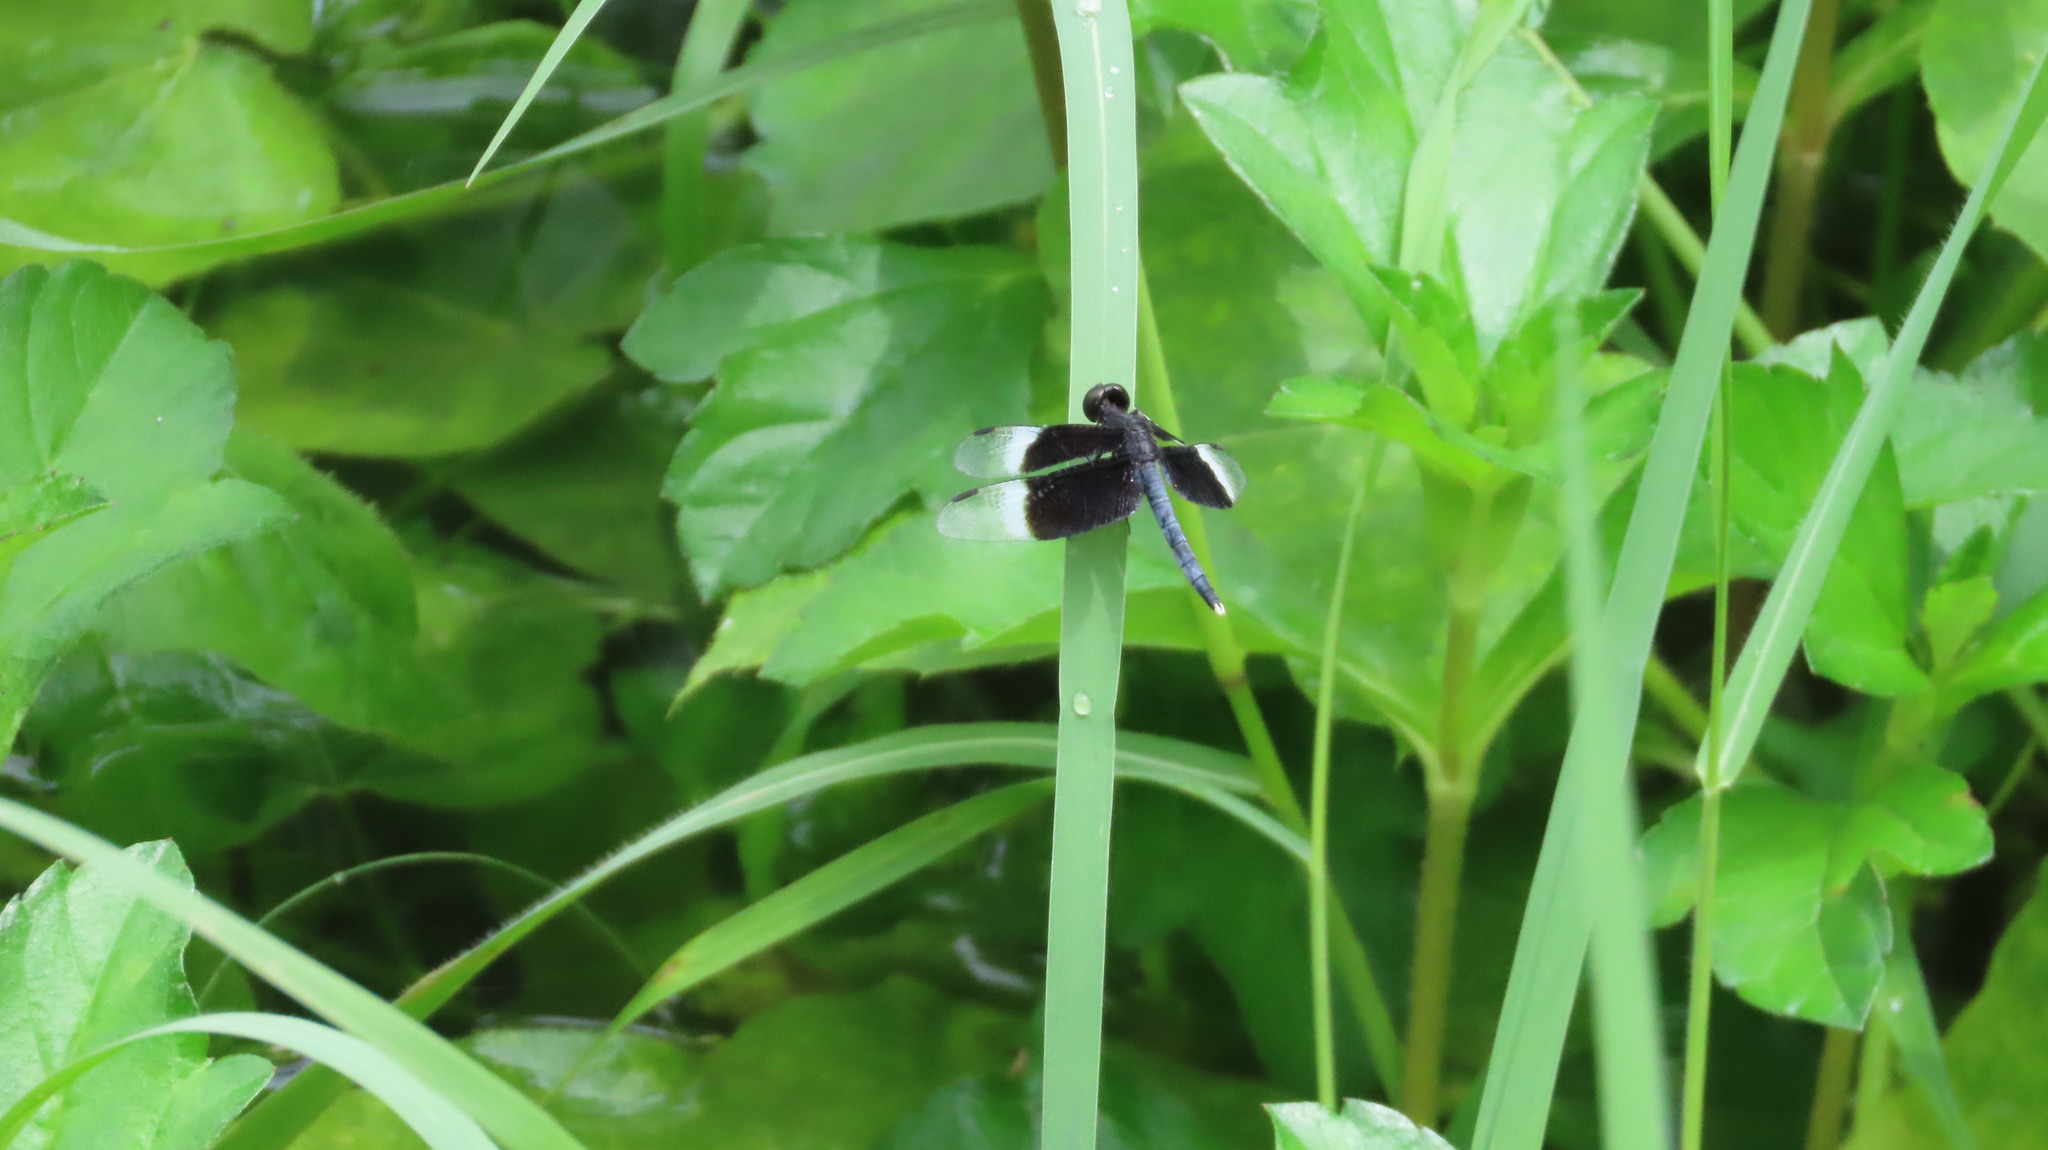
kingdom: Animalia
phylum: Arthropoda
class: Insecta
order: Odonata
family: Libellulidae
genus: Neurothemis
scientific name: Neurothemis tullia
